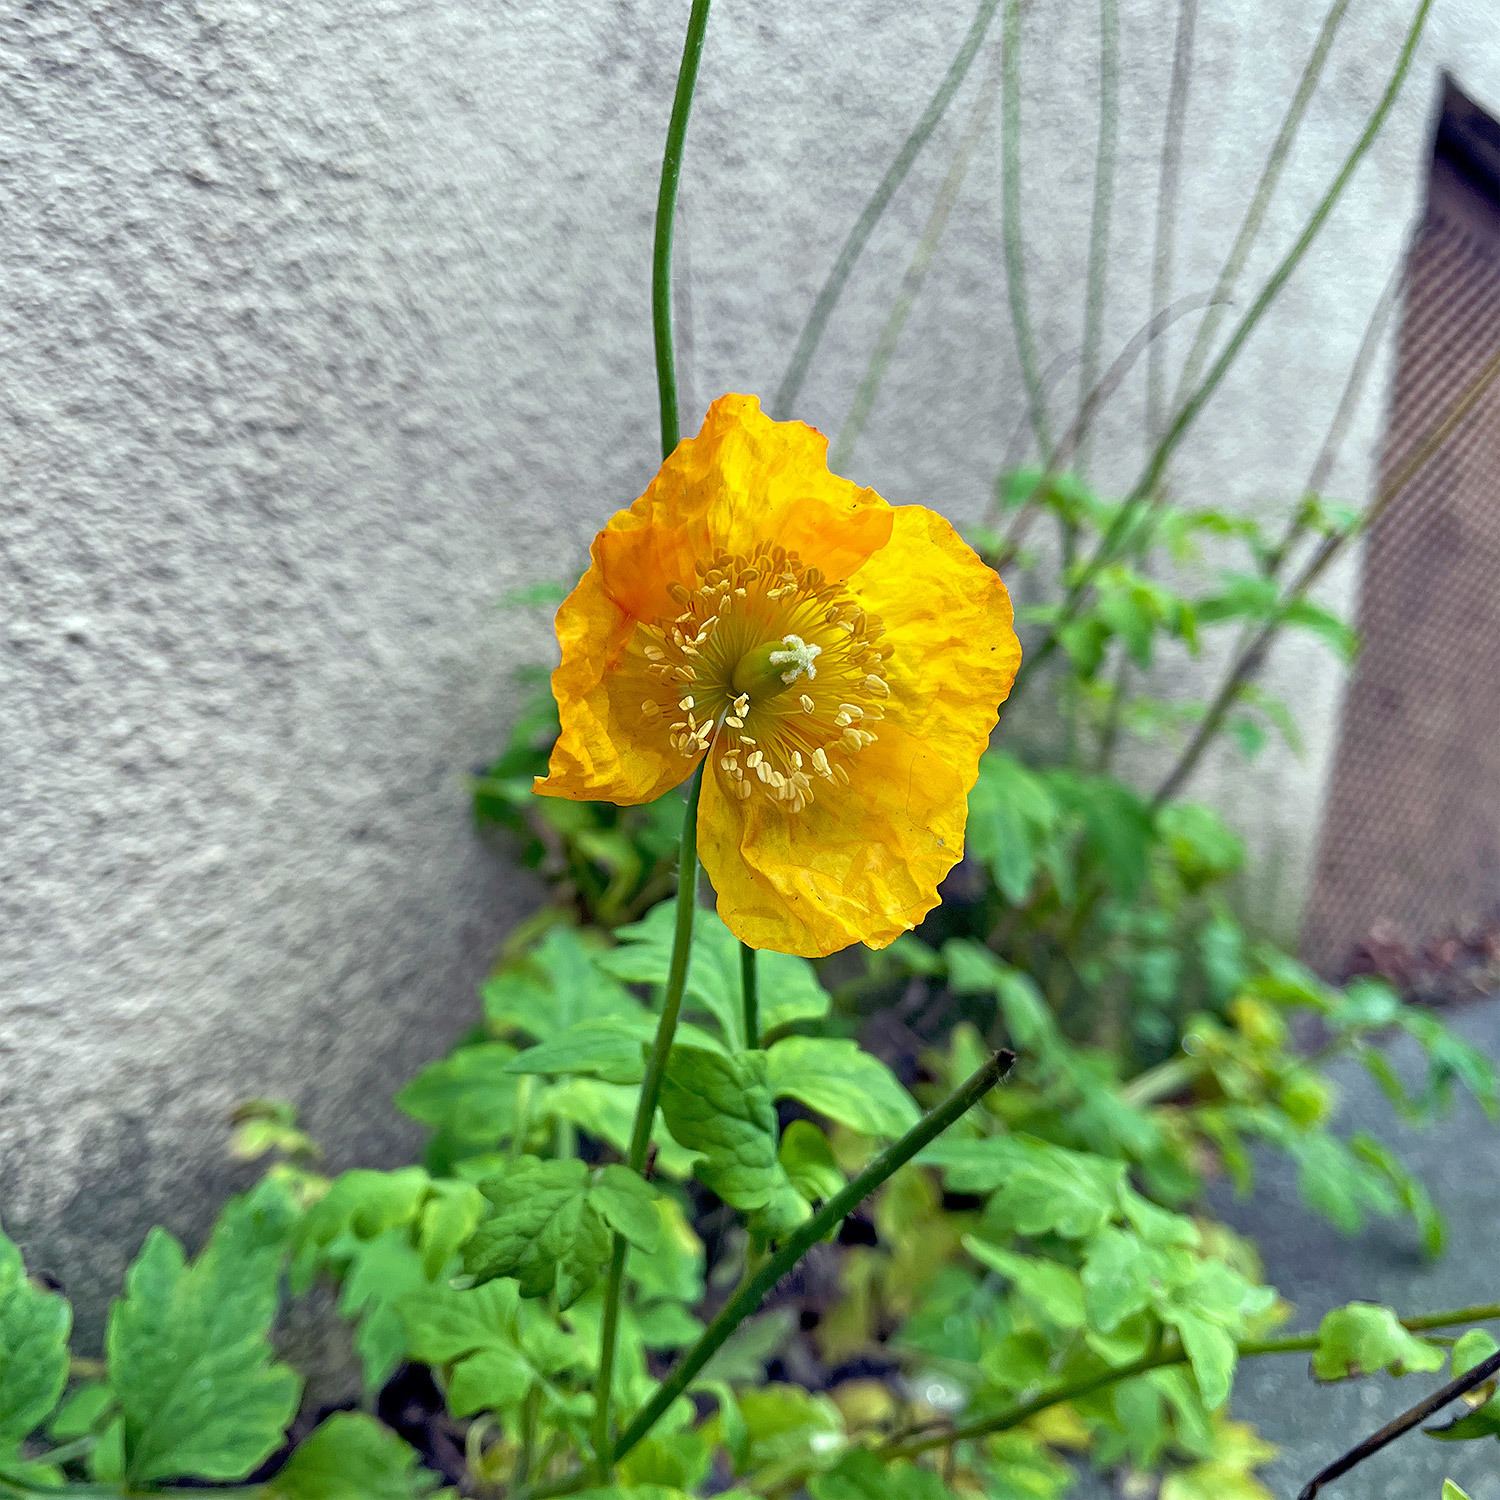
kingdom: Plantae
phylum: Tracheophyta
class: Magnoliopsida
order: Ranunculales
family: Papaveraceae
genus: Papaver
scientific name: Papaver cambricum
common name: Poppy
